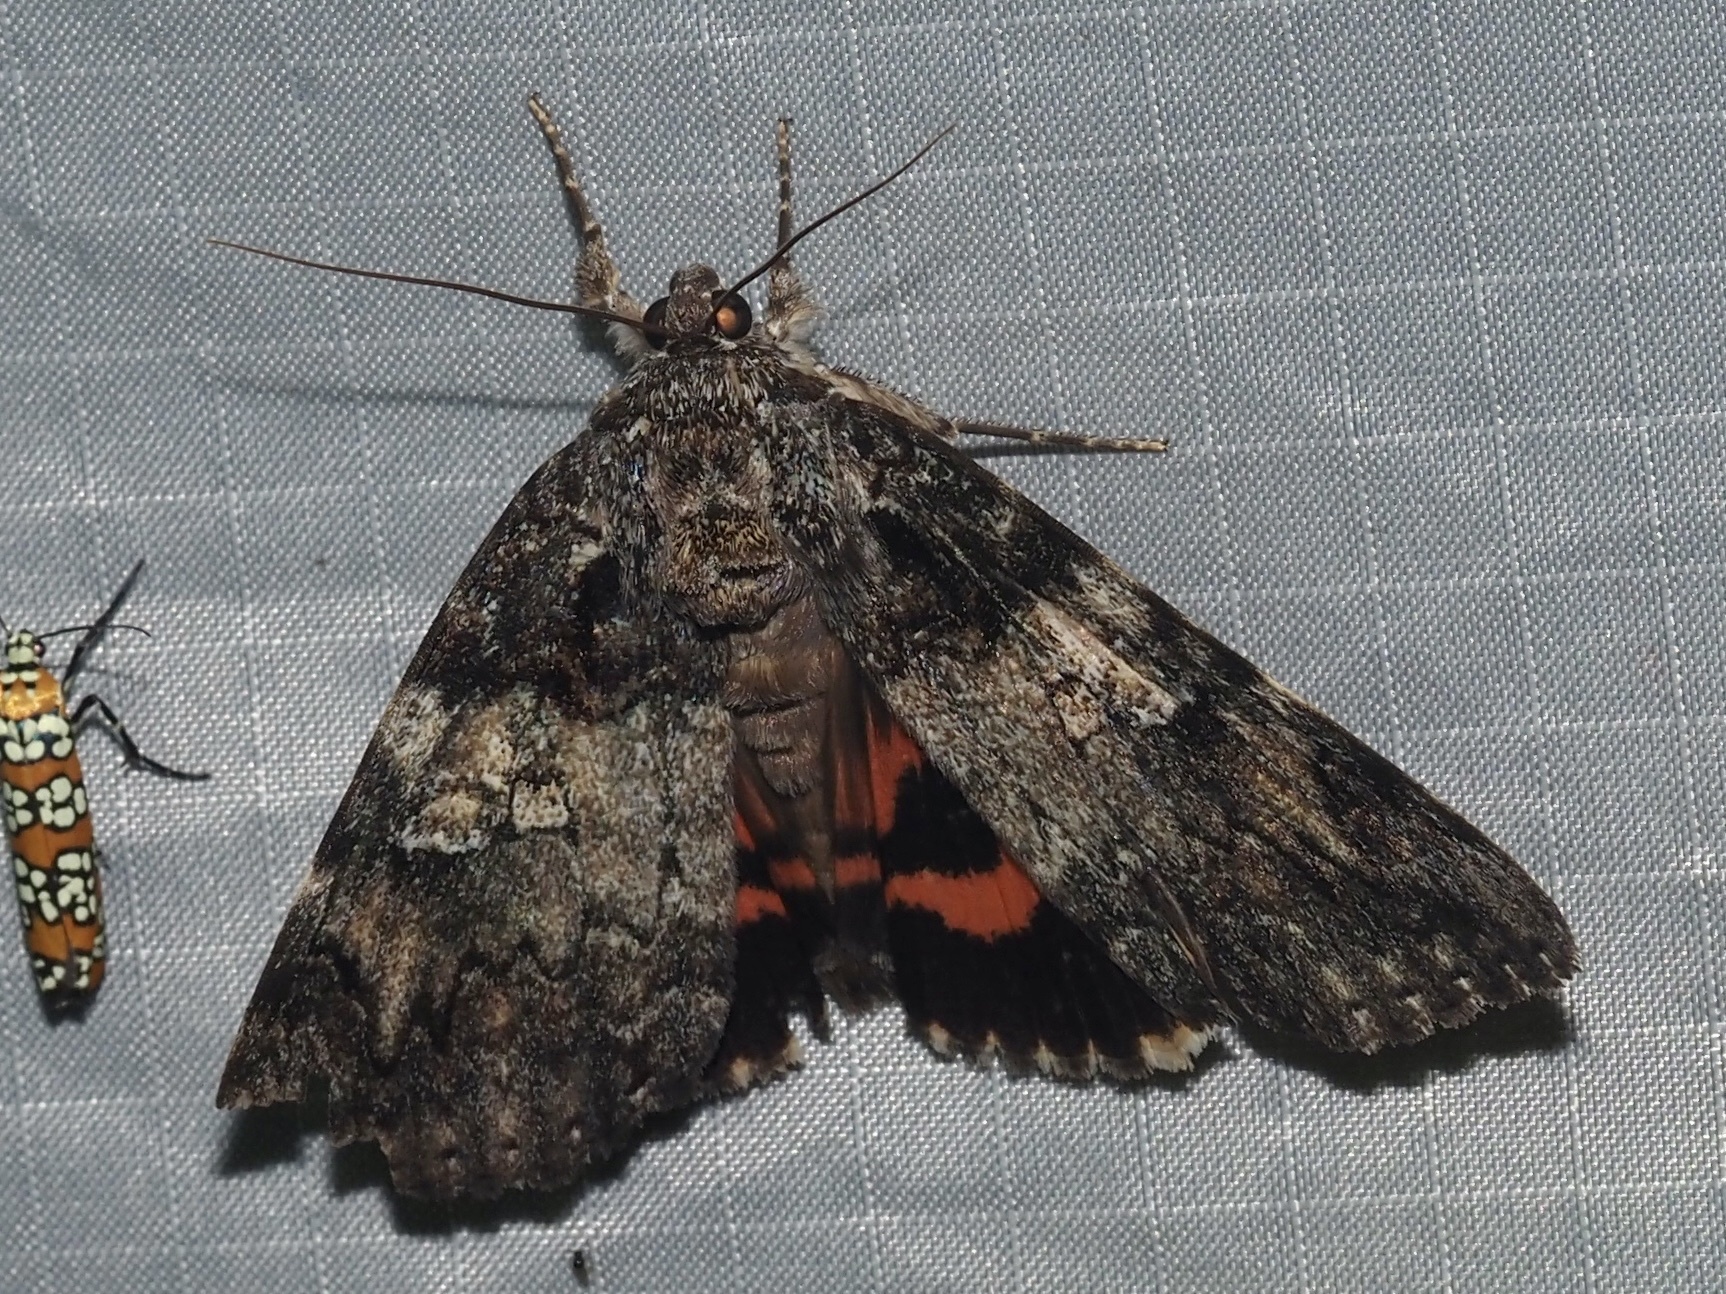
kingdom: Animalia
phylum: Arthropoda
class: Insecta
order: Lepidoptera
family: Erebidae
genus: Catocala
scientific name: Catocala ilia
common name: Ilia underwing
